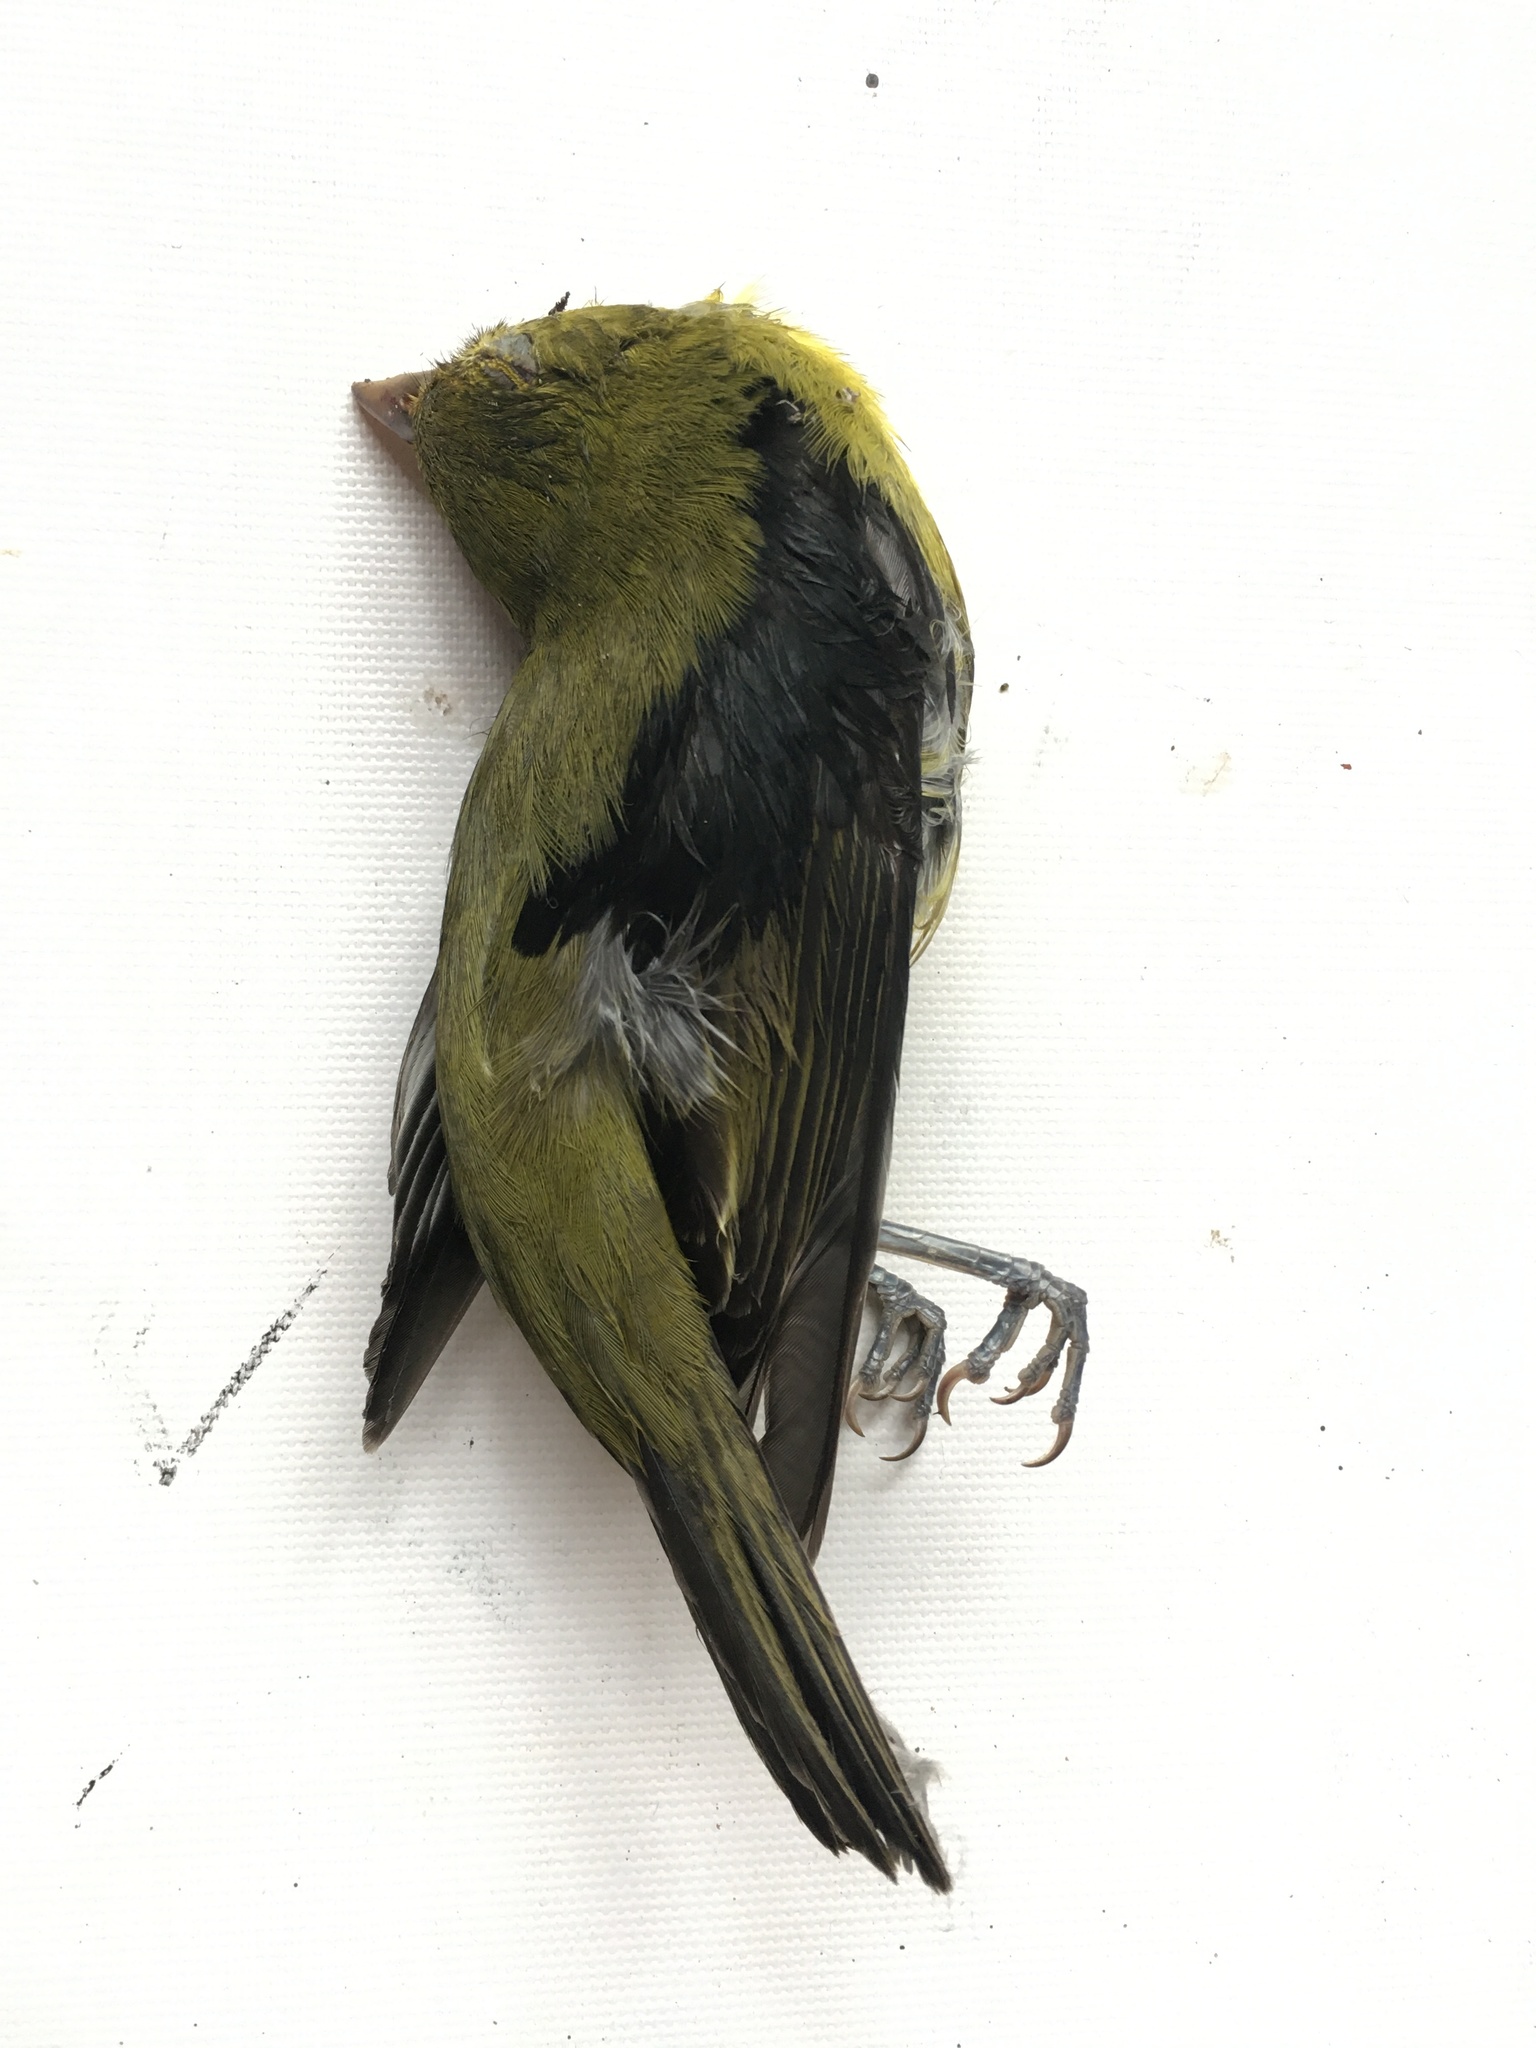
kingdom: Animalia
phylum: Chordata
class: Aves
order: Passeriformes
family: Cardinalidae
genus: Piranga
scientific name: Piranga olivacea
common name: Scarlet tanager
